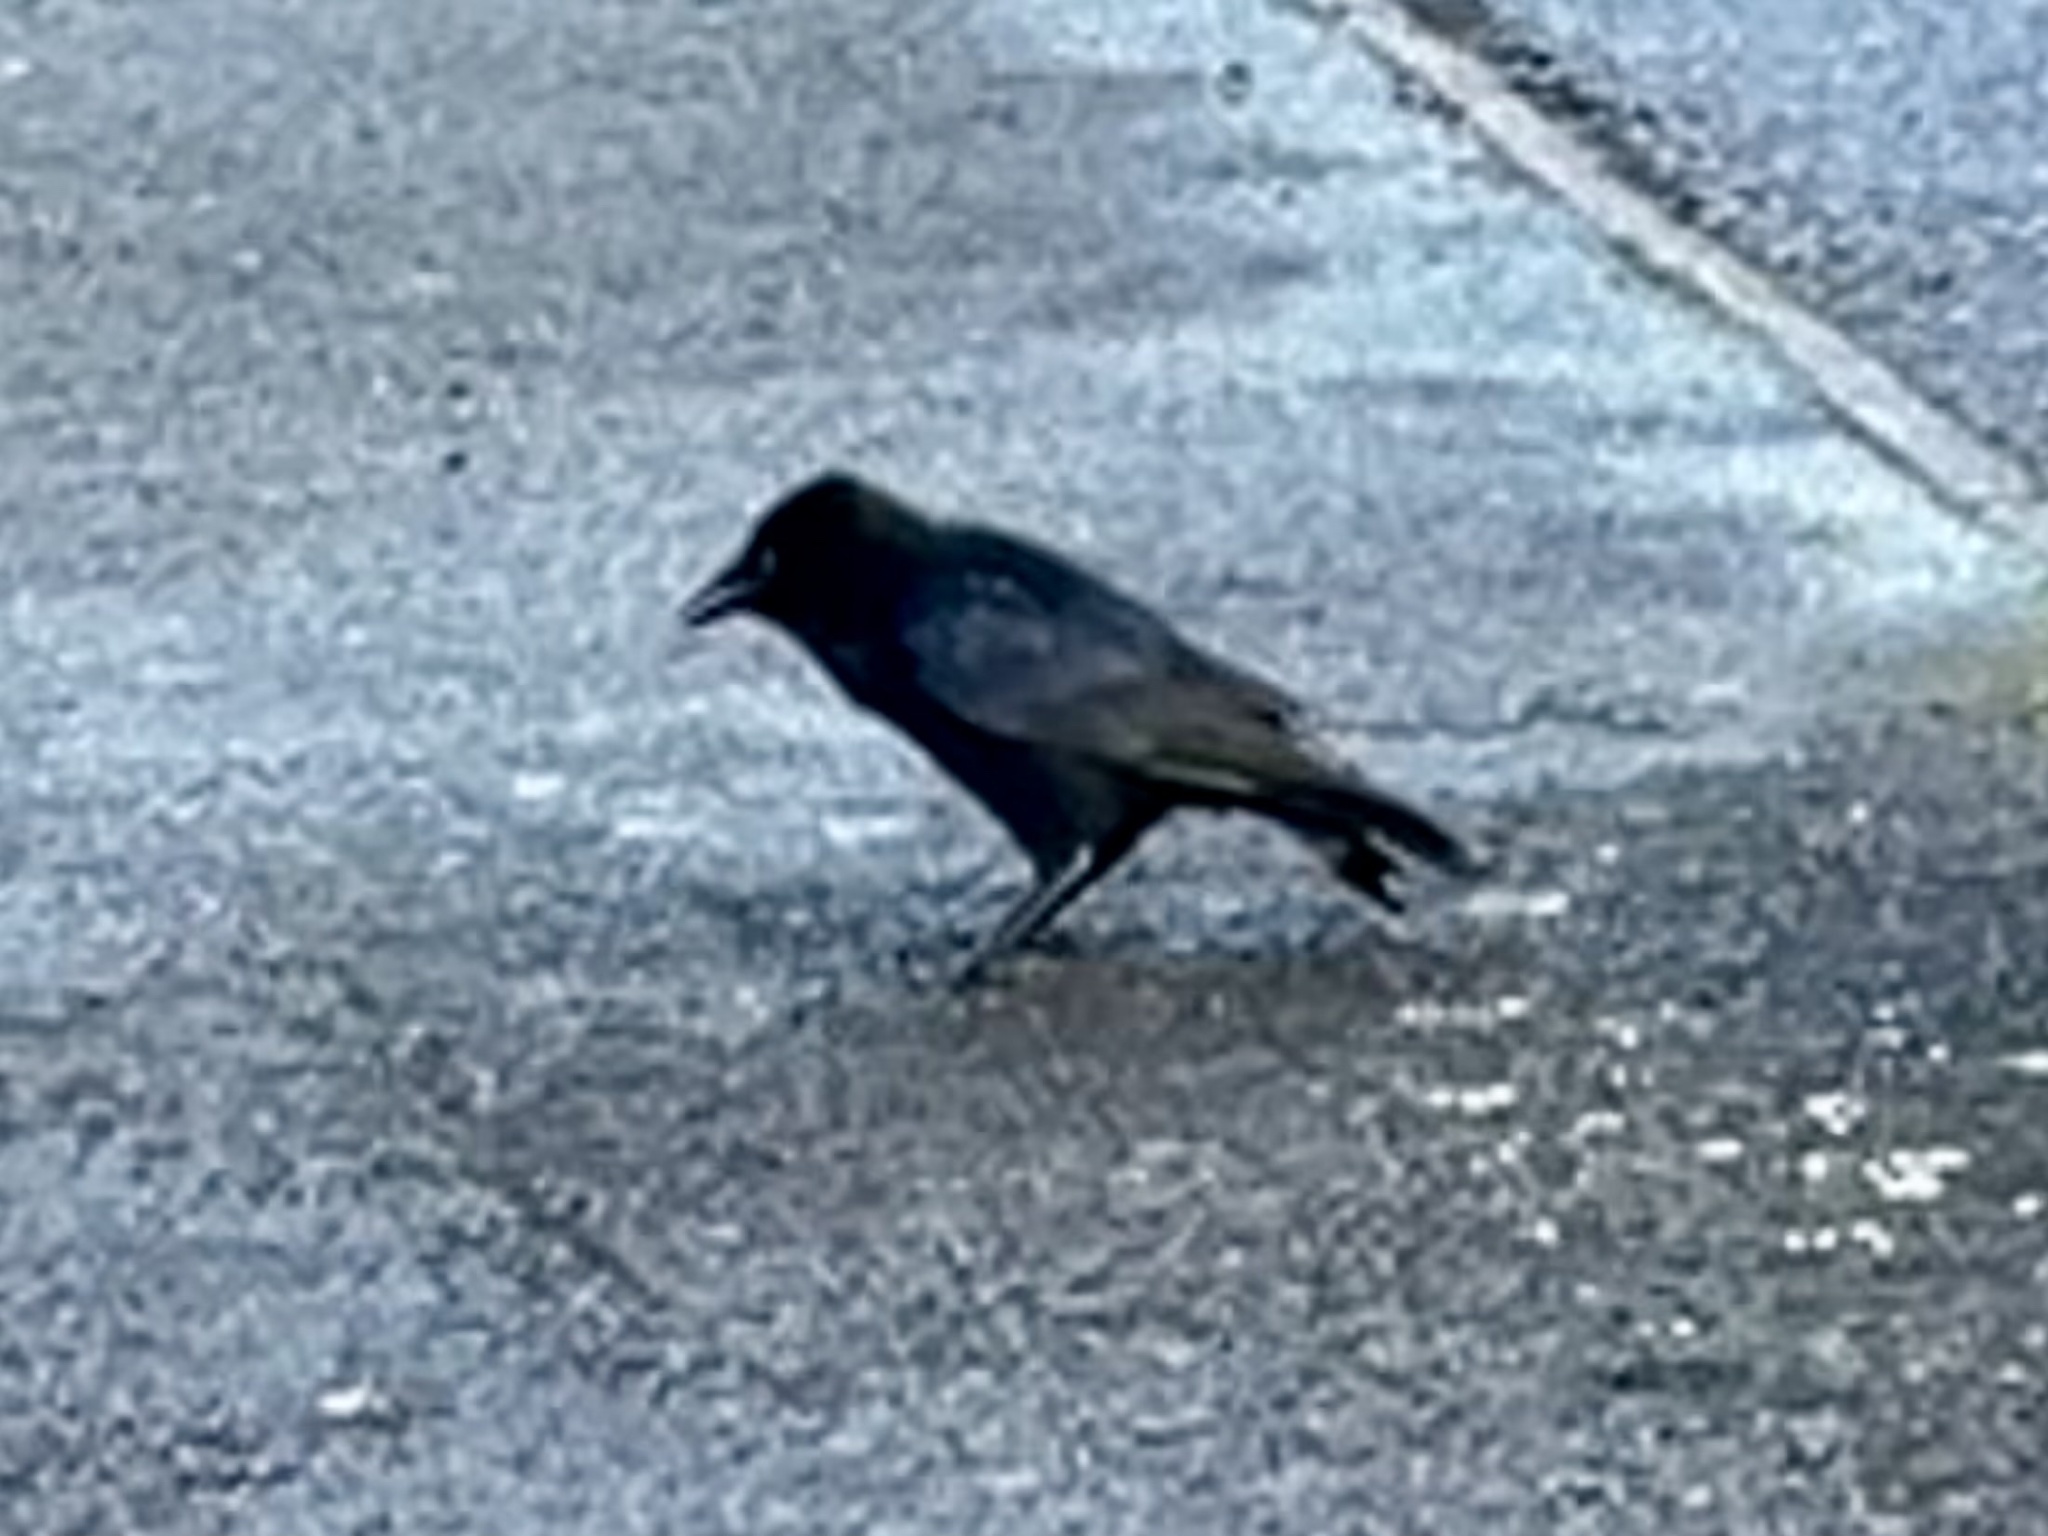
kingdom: Animalia
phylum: Chordata
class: Aves
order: Passeriformes
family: Corvidae
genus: Corvus
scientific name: Corvus corone
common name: Carrion crow
